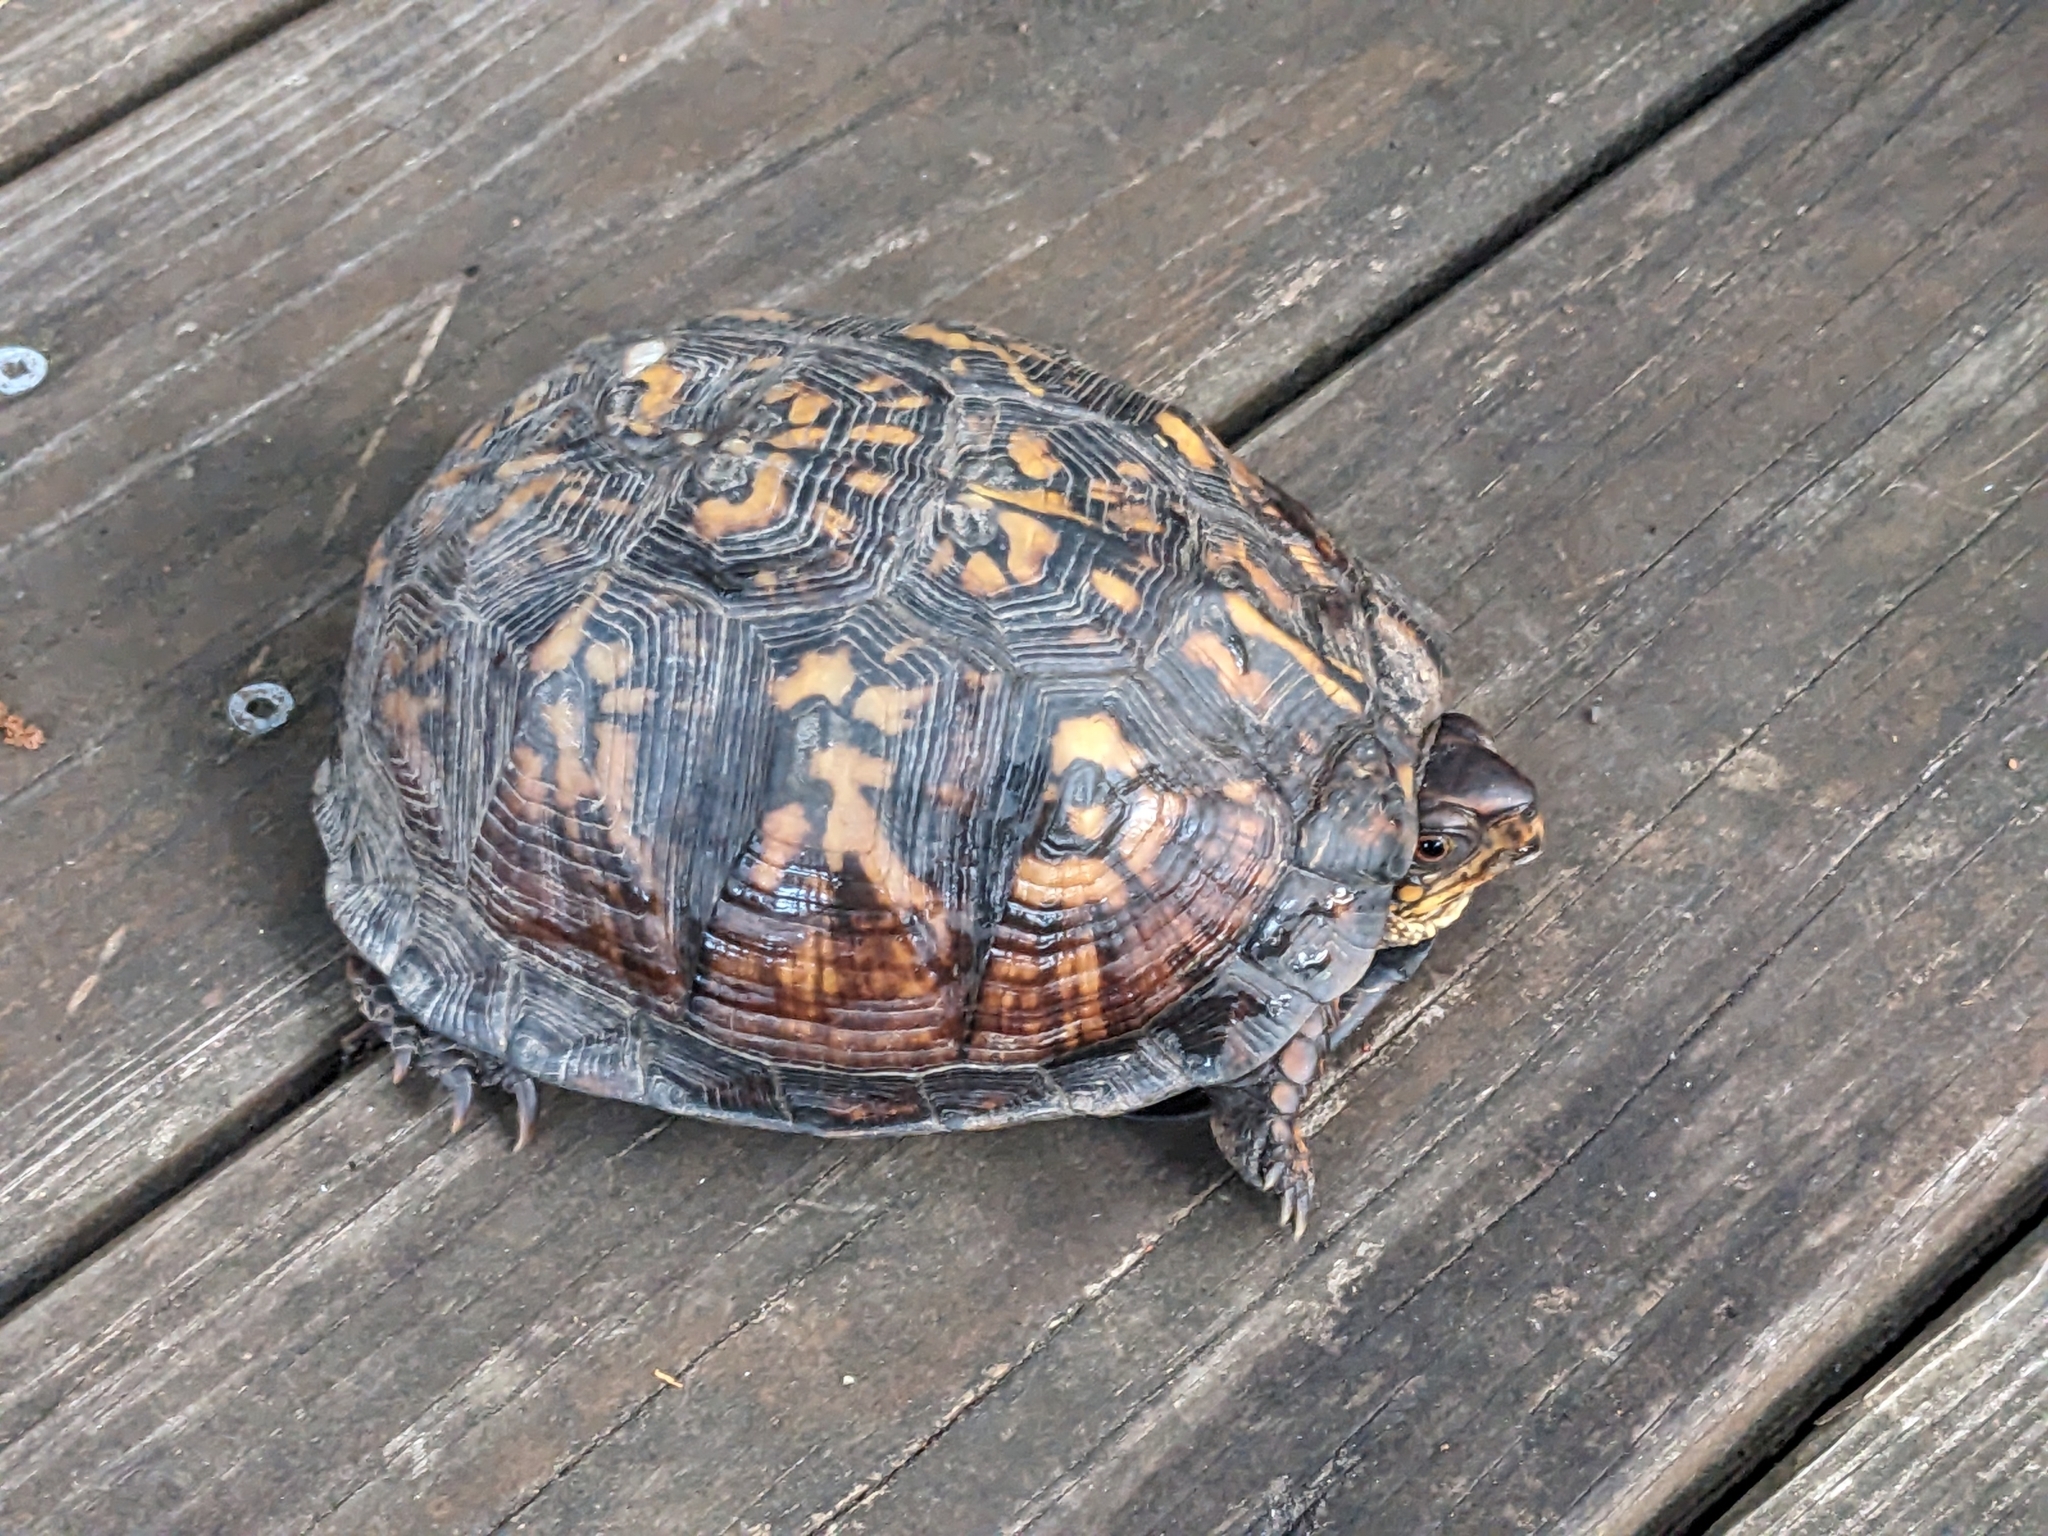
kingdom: Animalia
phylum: Chordata
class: Testudines
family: Emydidae
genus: Terrapene
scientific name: Terrapene carolina
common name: Common box turtle
